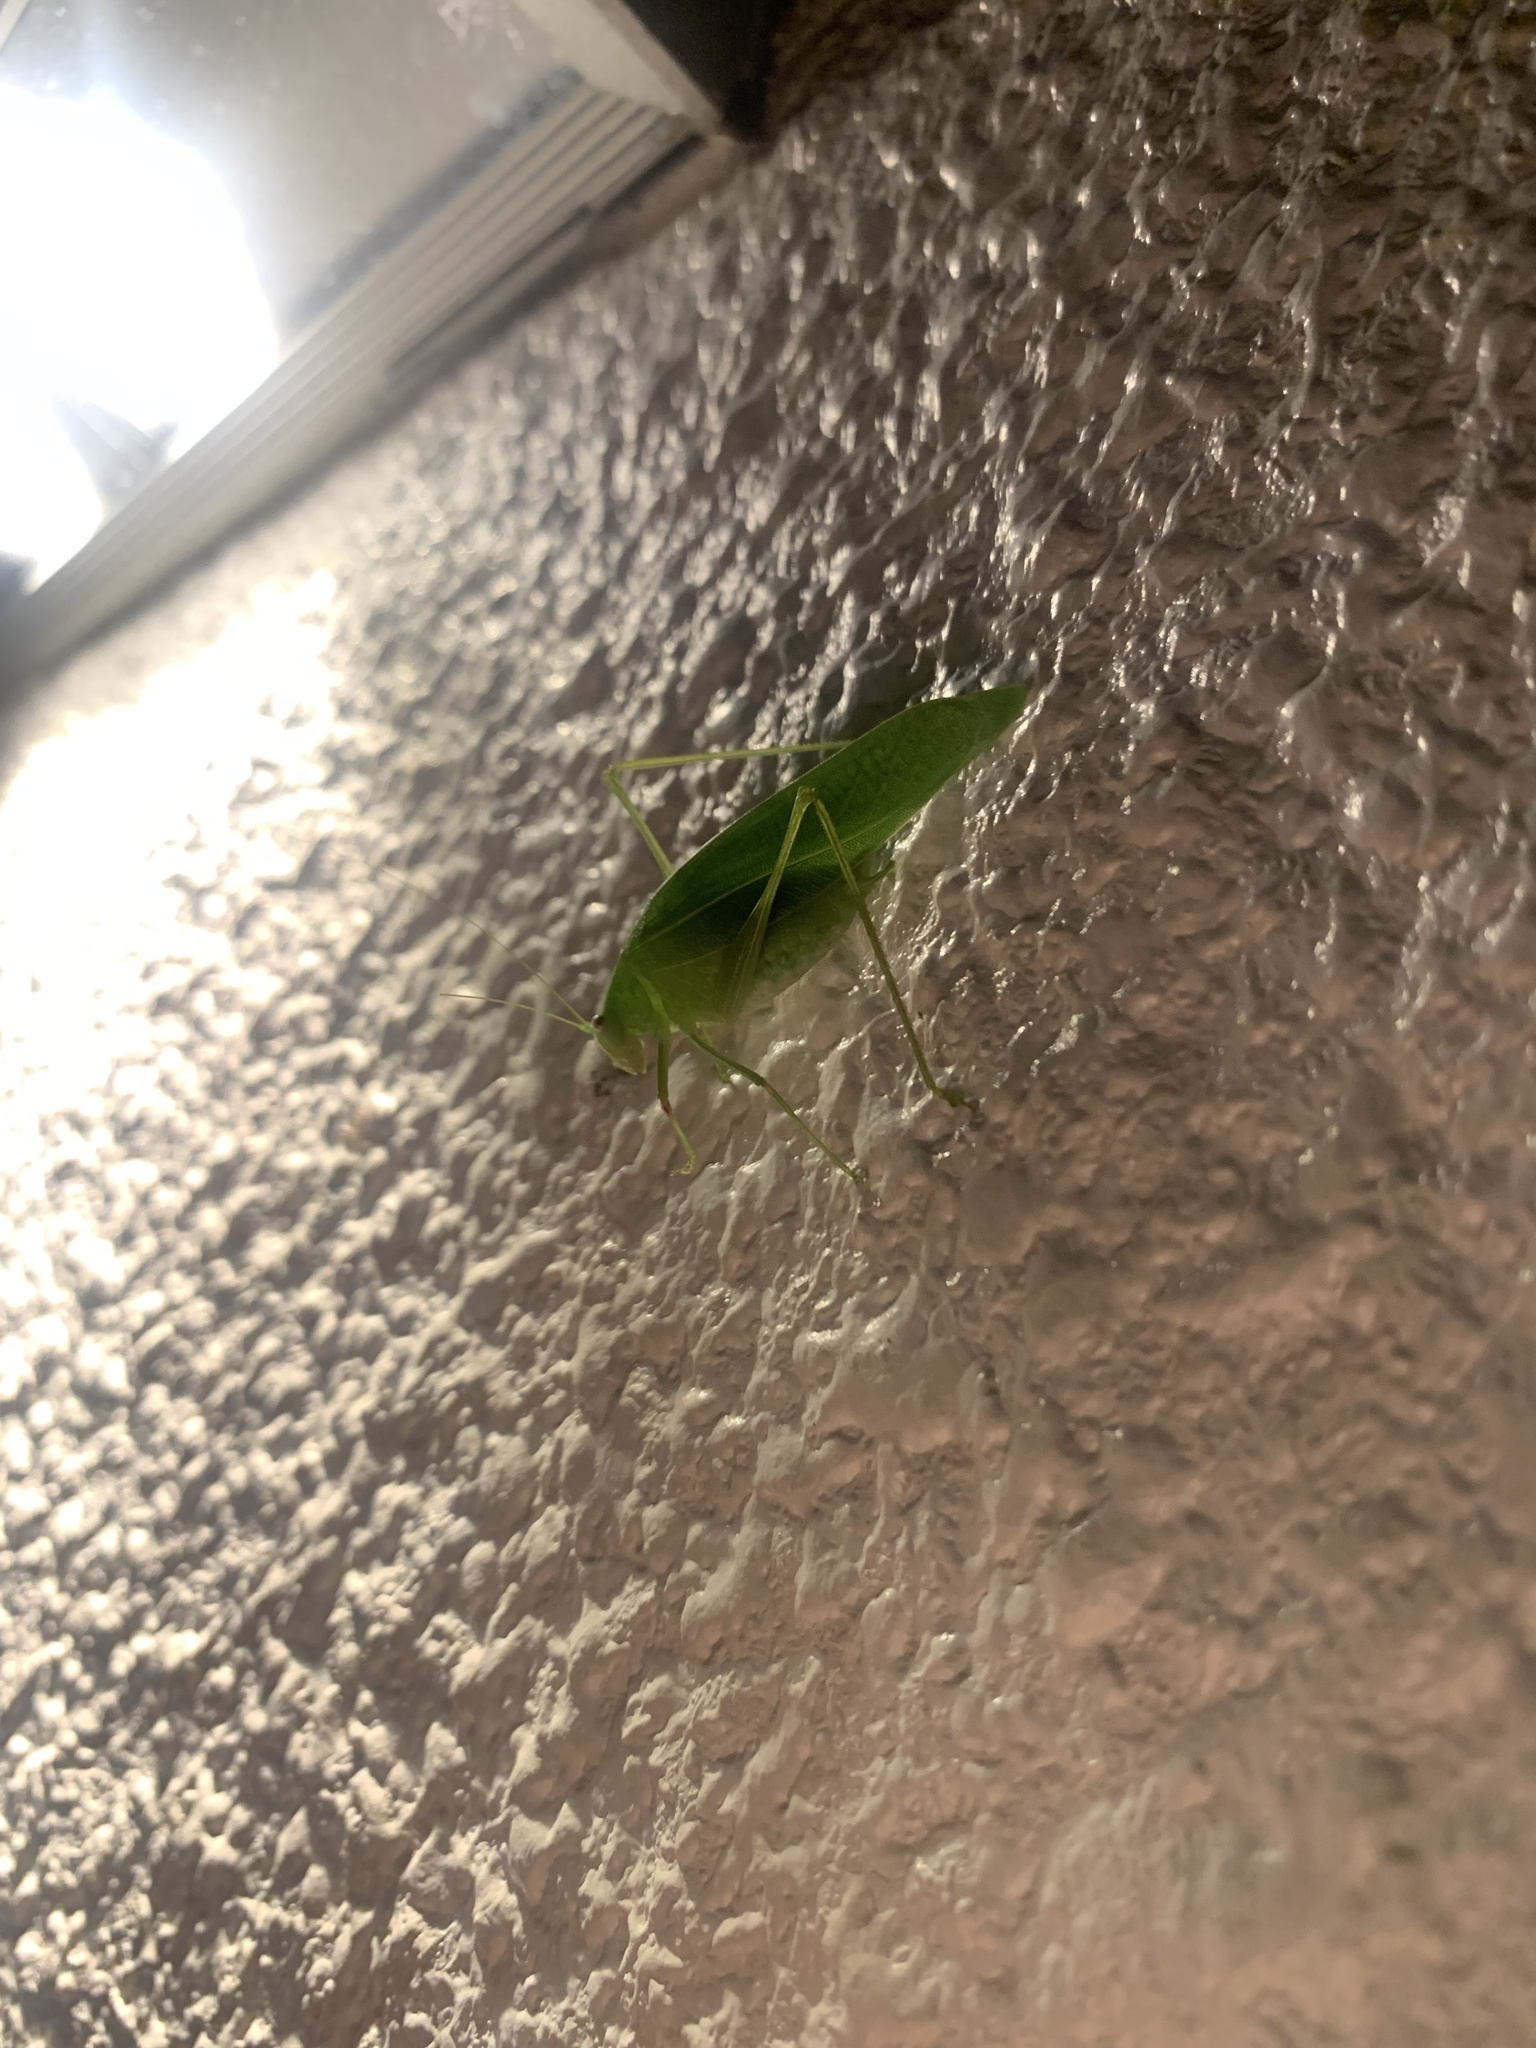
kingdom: Animalia
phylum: Arthropoda
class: Insecta
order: Orthoptera
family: Tettigoniidae
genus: Phaulula
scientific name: Phaulula macilenta
